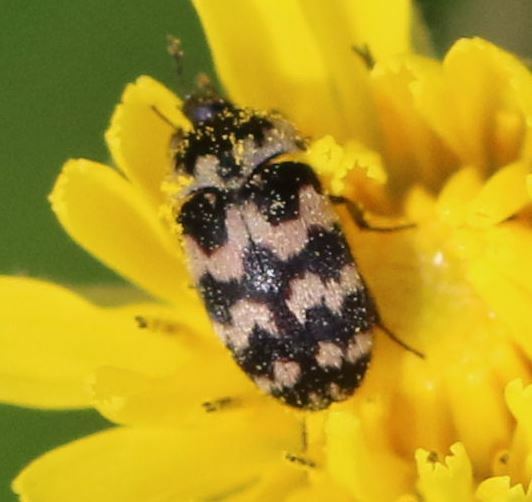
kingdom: Animalia
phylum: Arthropoda
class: Insecta
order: Coleoptera
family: Dermestidae
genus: Attagenus
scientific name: Attagenus trifasciatus
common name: Carpet beetle
